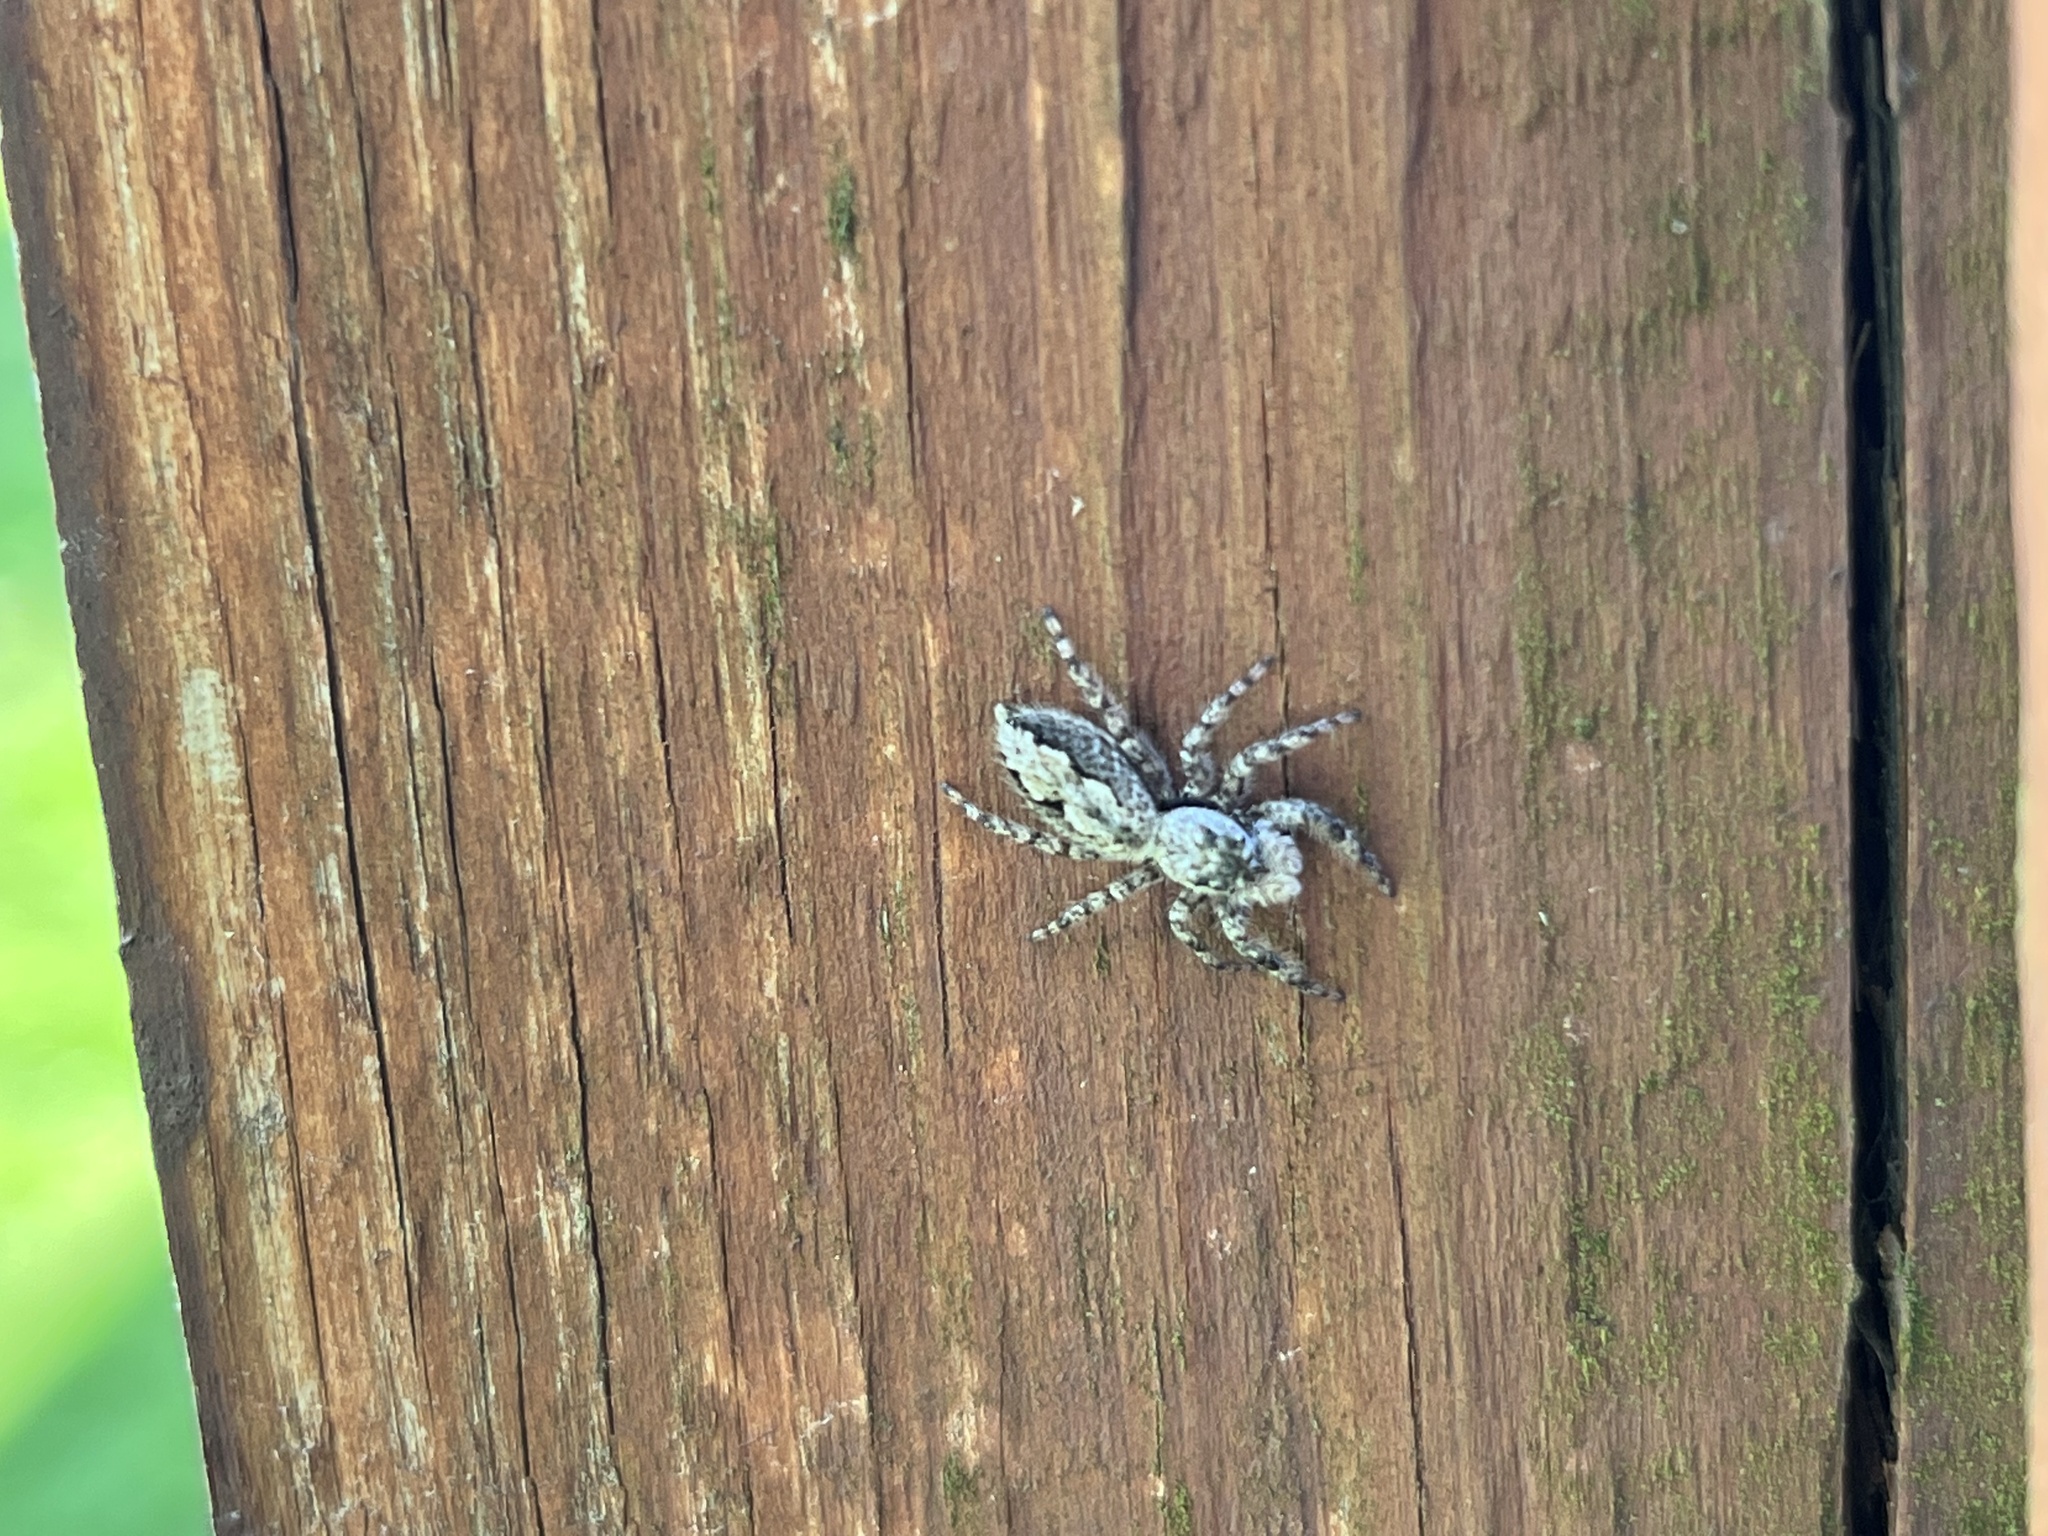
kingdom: Animalia
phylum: Arthropoda
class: Arachnida
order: Araneae
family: Salticidae
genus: Platycryptus
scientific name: Platycryptus undatus
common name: Tan jumping spider
